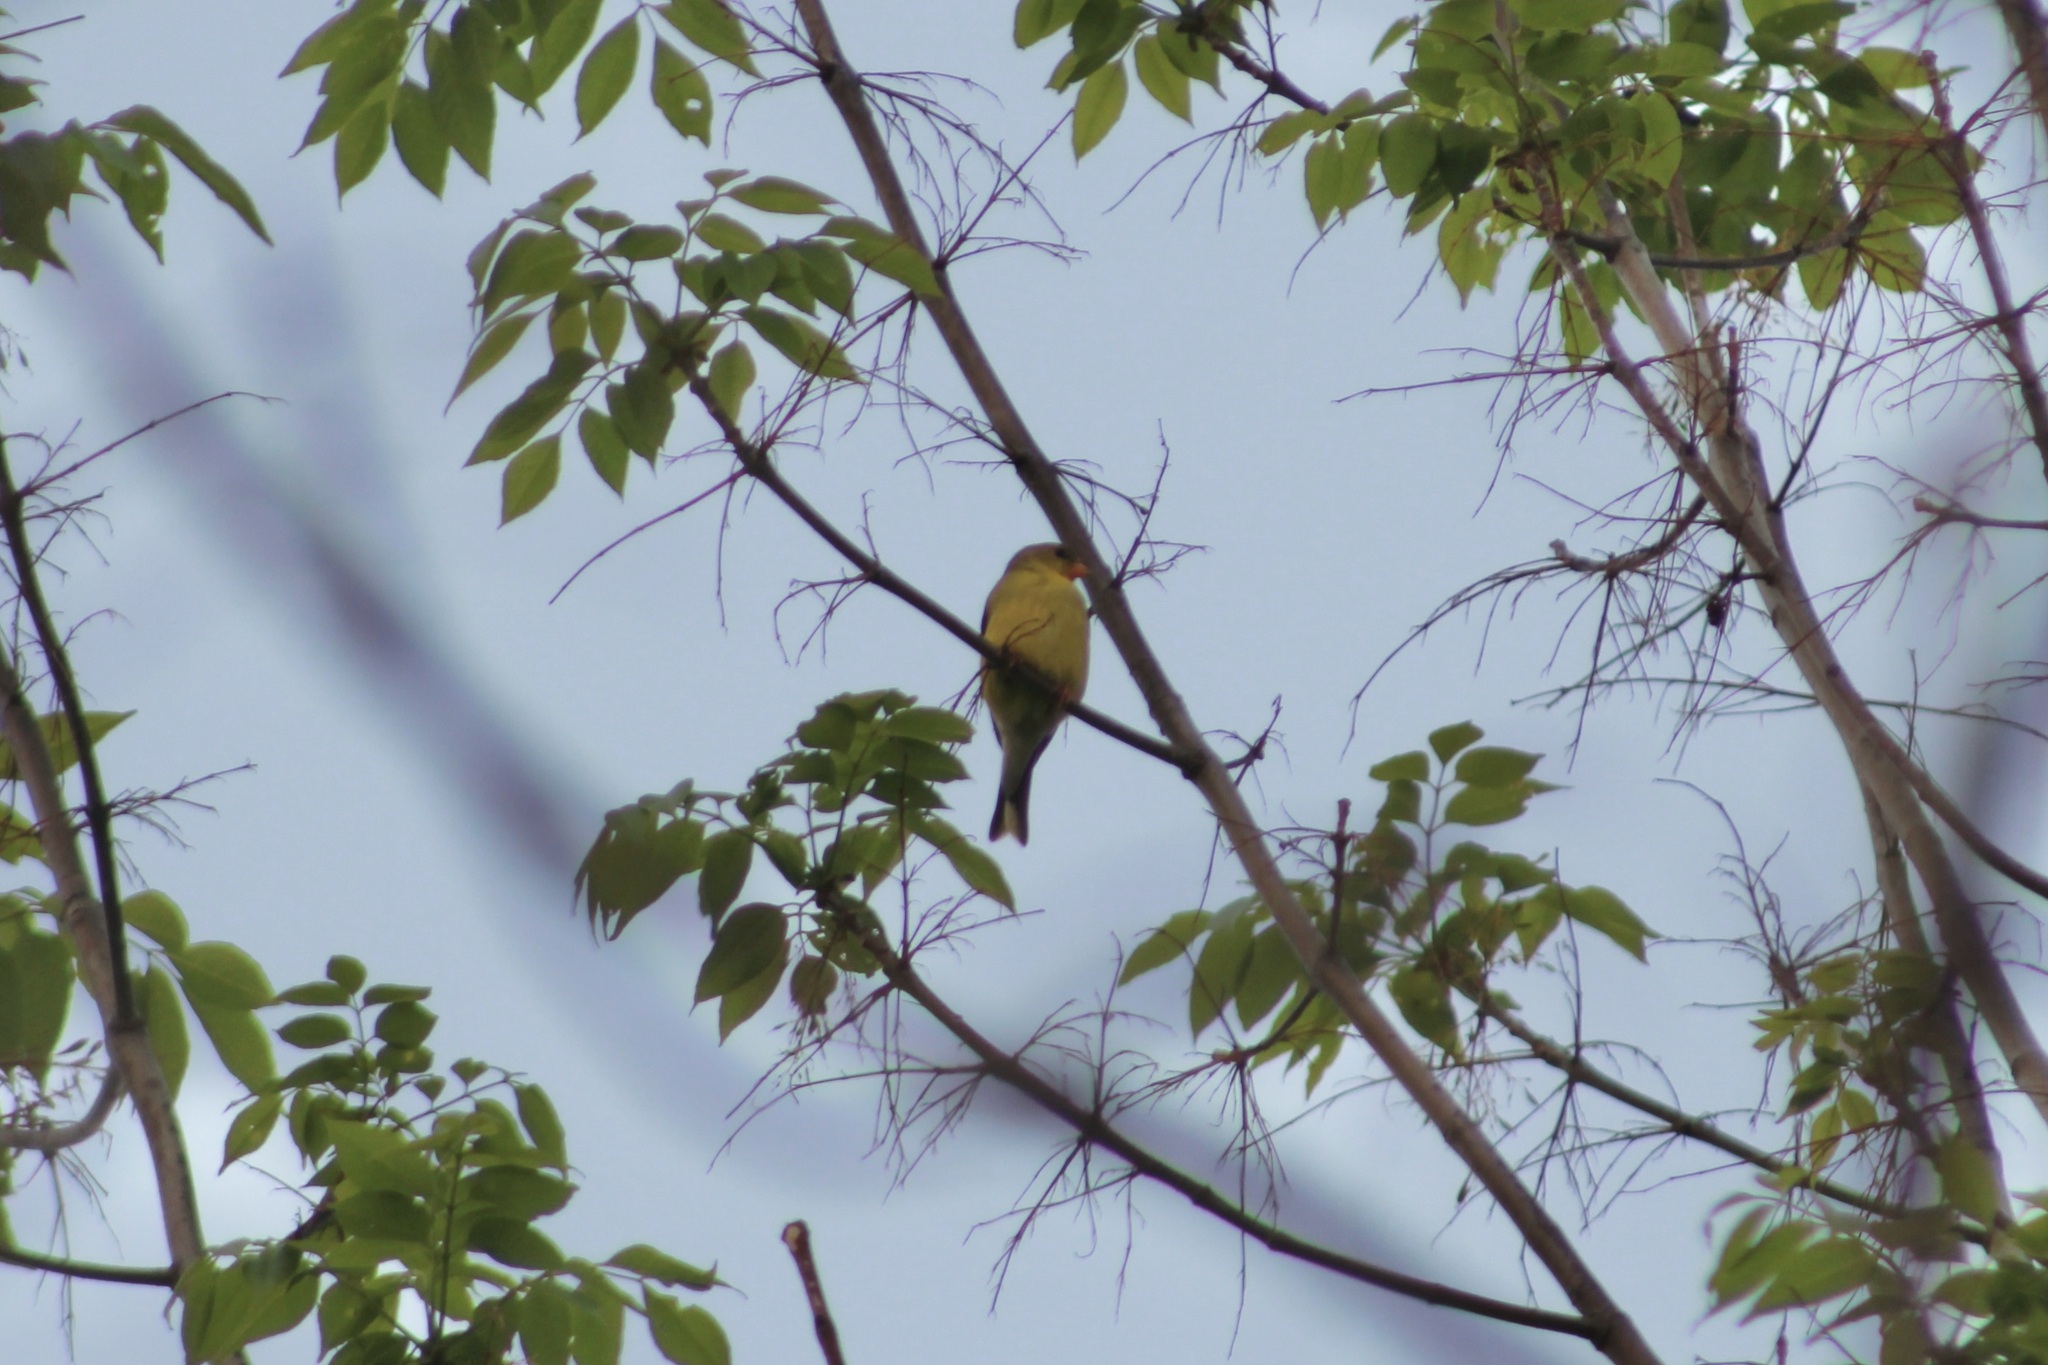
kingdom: Animalia
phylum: Chordata
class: Aves
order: Passeriformes
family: Fringillidae
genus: Spinus
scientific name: Spinus tristis
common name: American goldfinch
